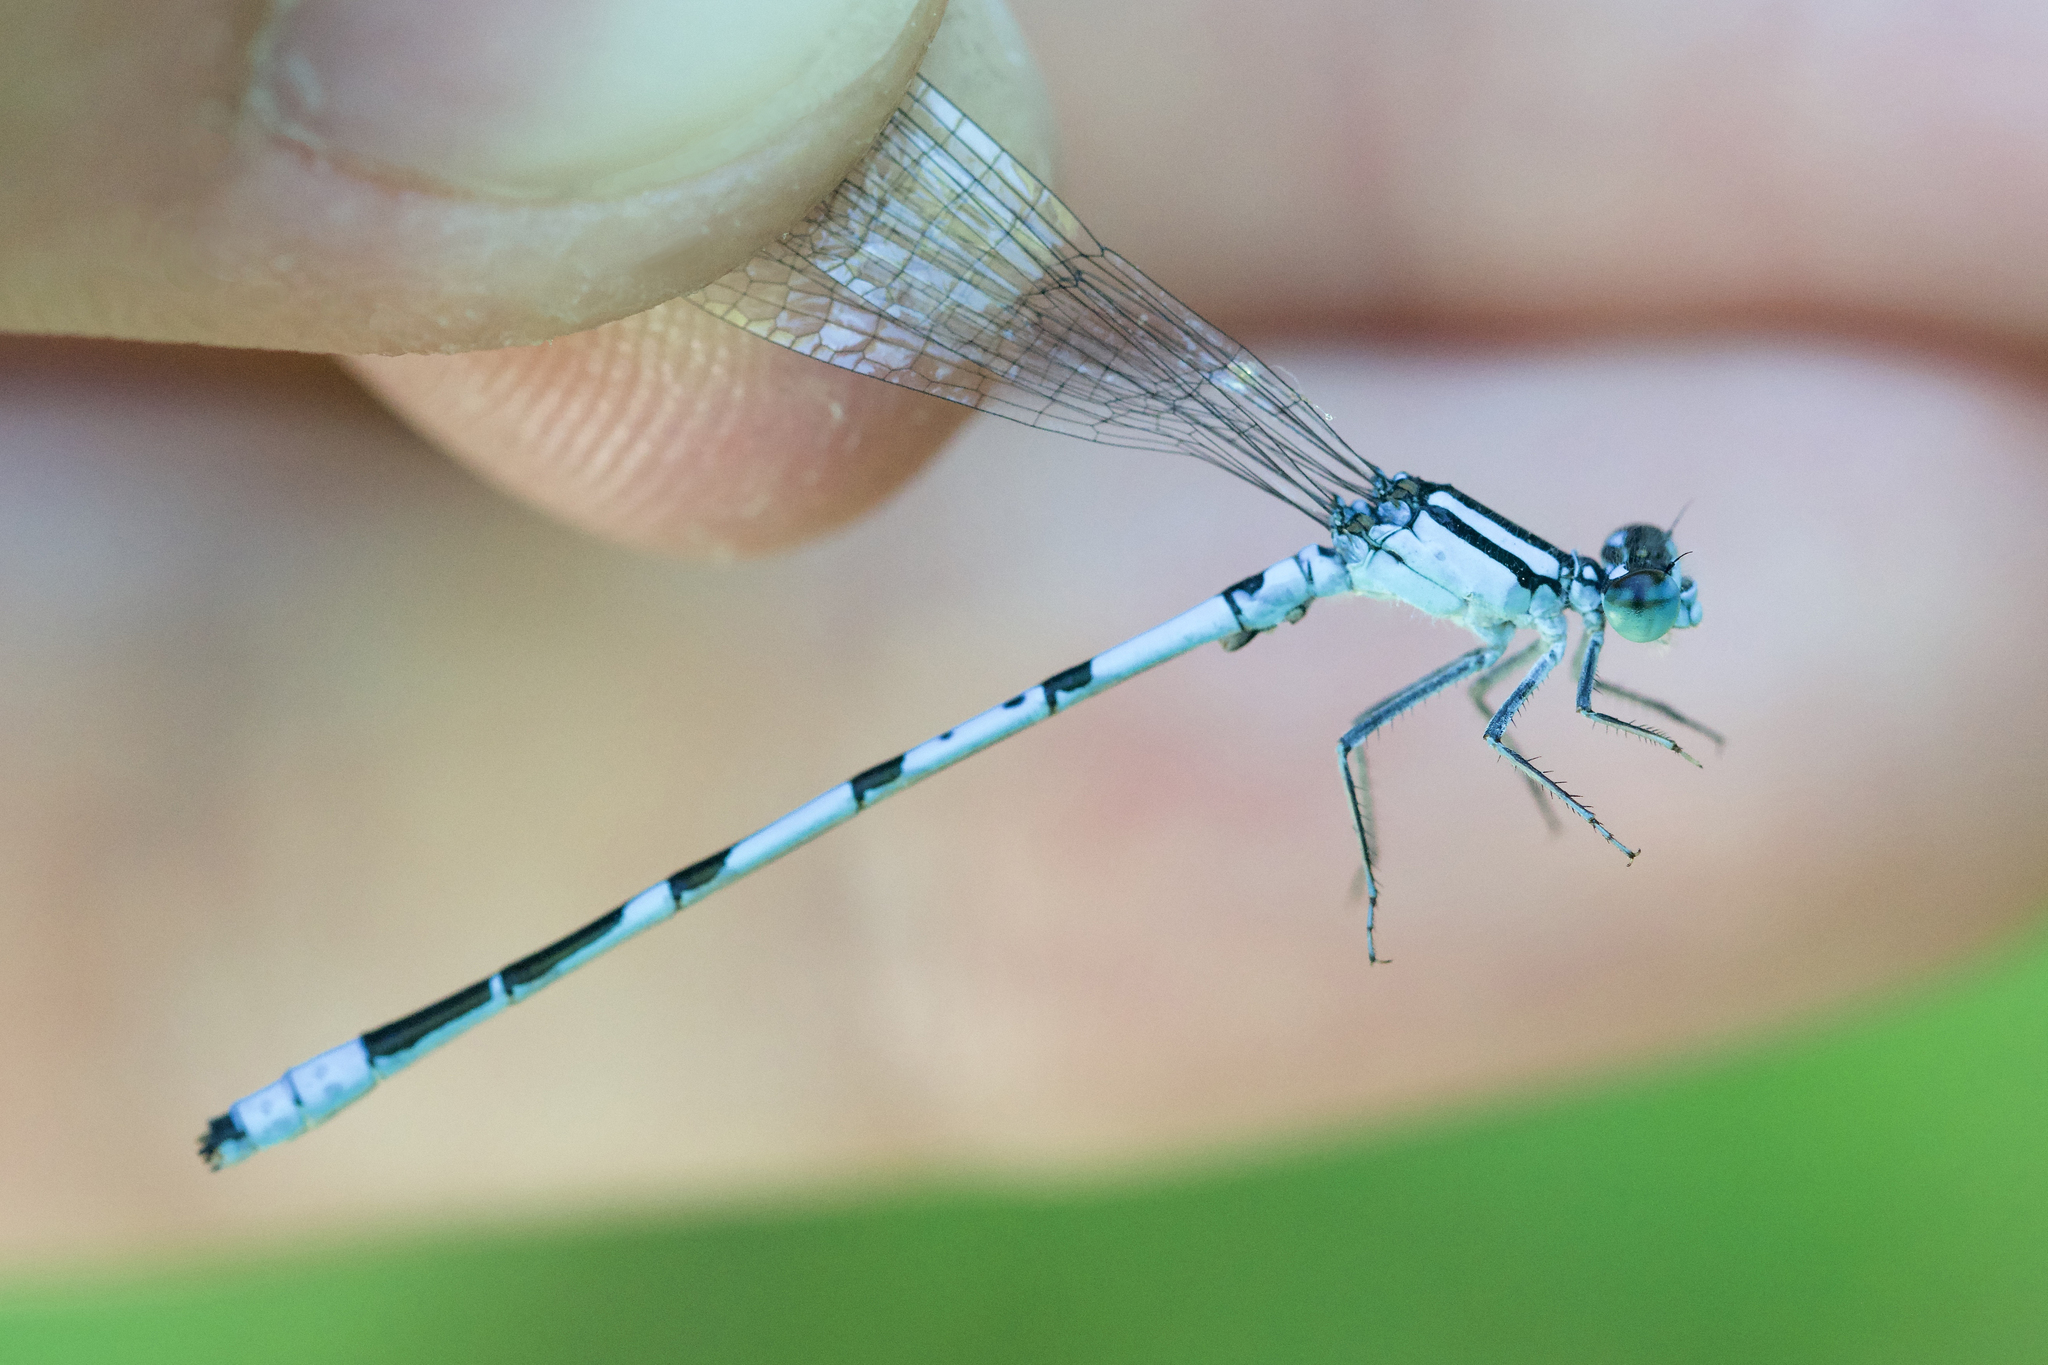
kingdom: Animalia
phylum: Arthropoda
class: Insecta
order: Odonata
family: Coenagrionidae
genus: Enallagma
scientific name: Enallagma ebrium
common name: Marsh bluet
